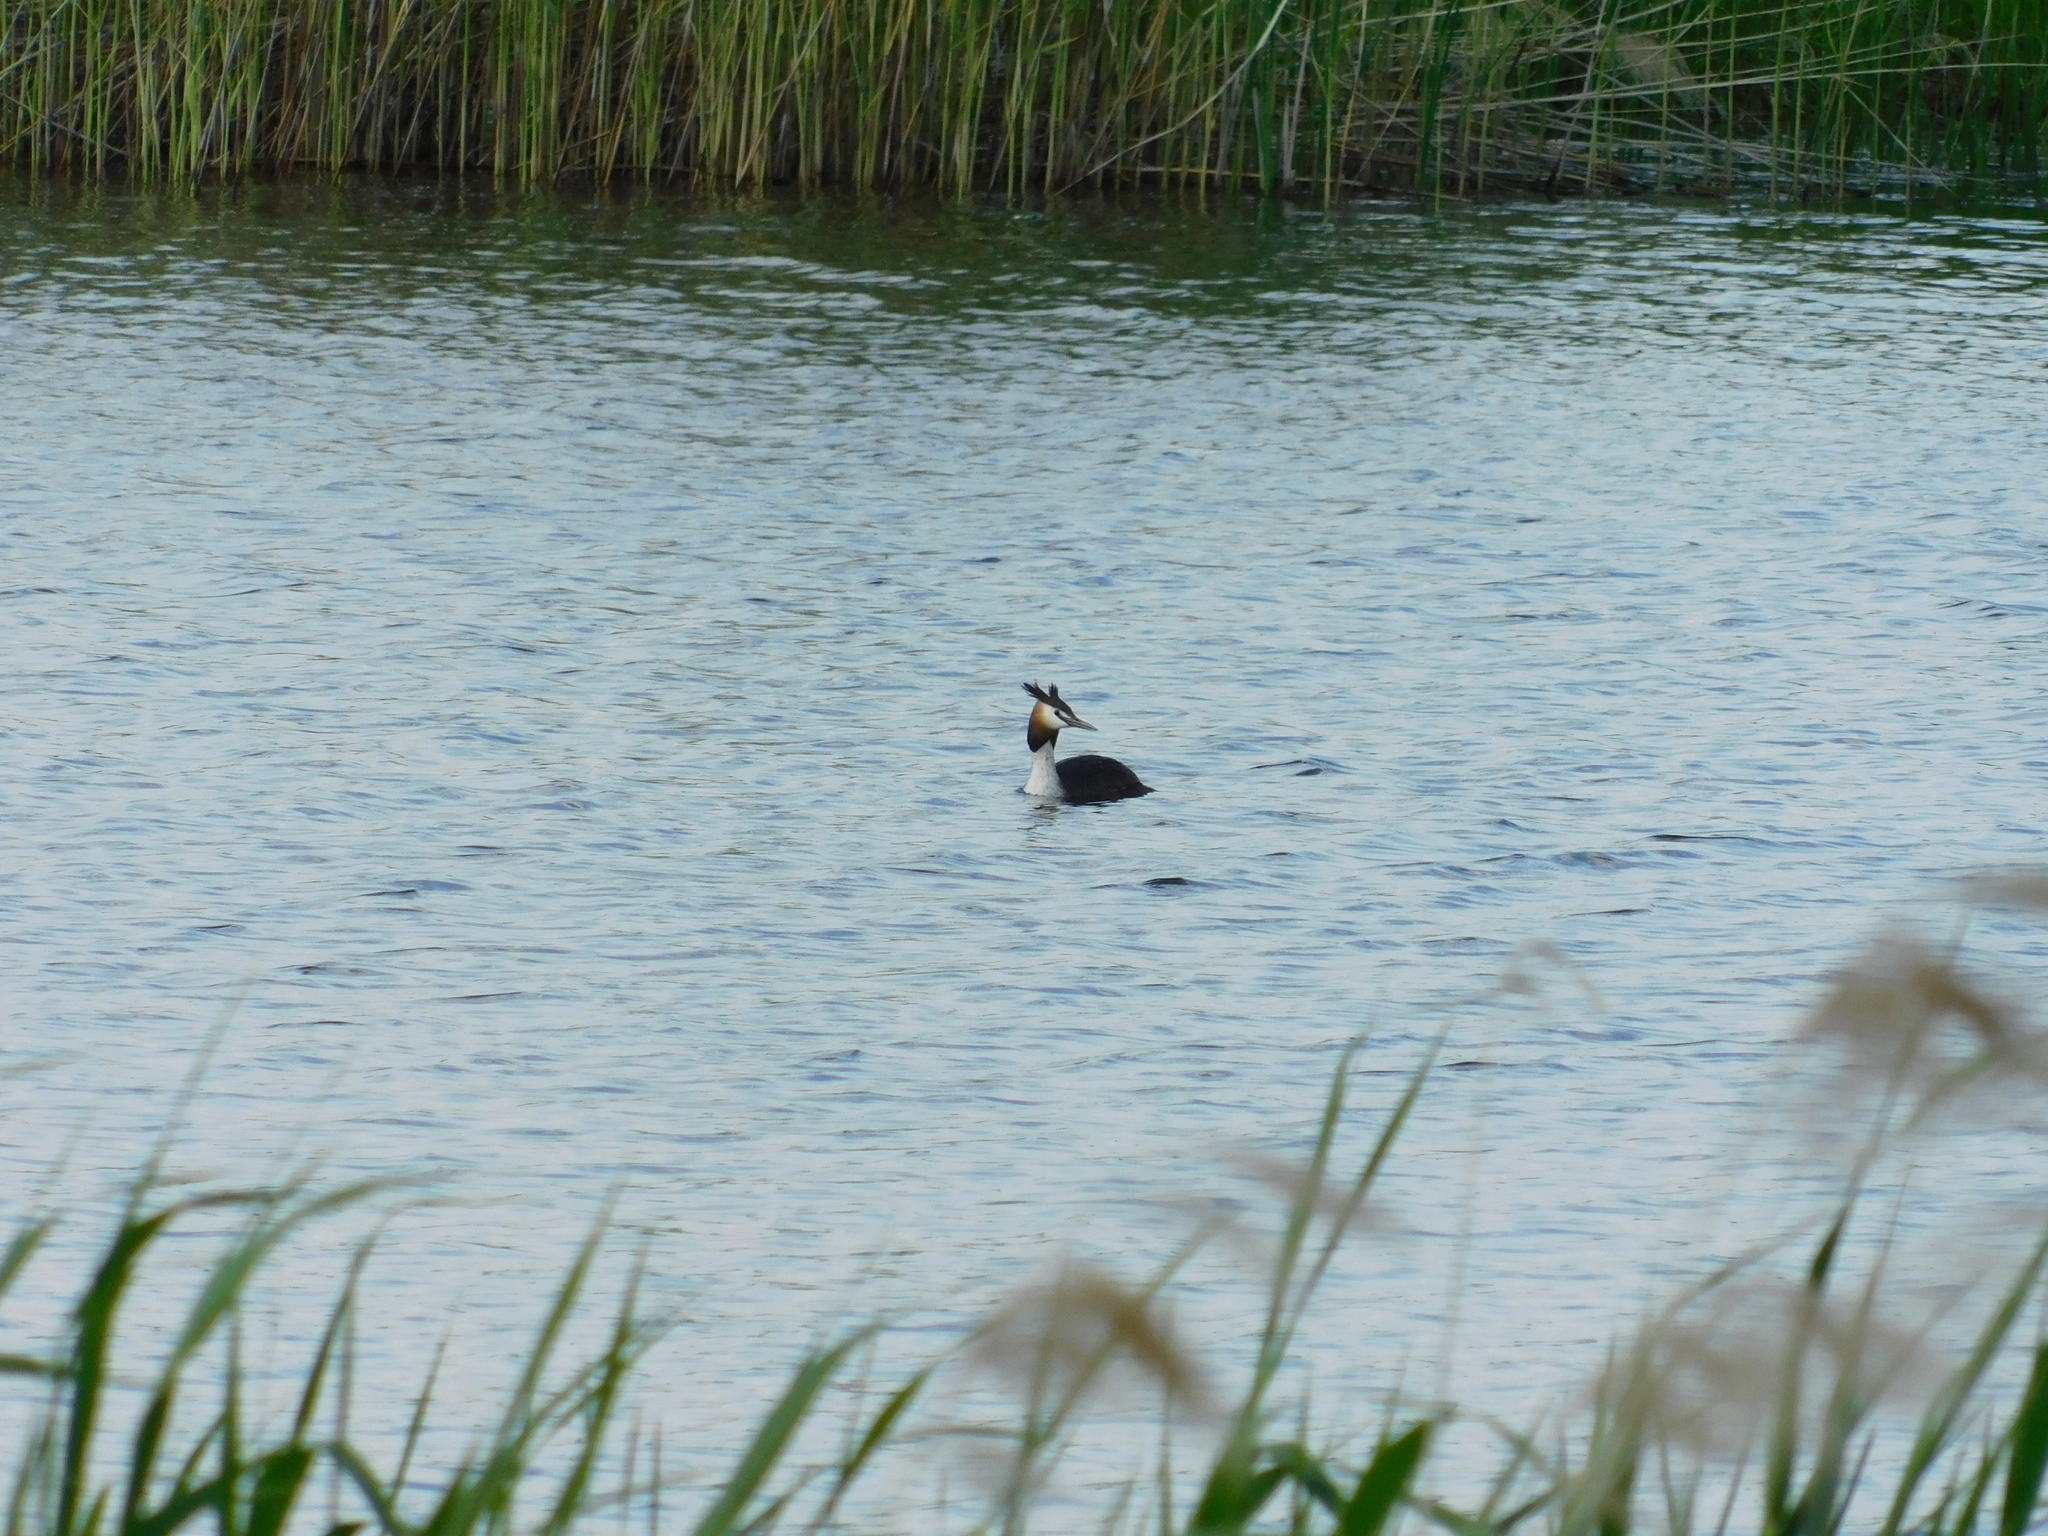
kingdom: Animalia
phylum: Chordata
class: Aves
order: Podicipediformes
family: Podicipedidae
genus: Podiceps
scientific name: Podiceps cristatus
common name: Great crested grebe
